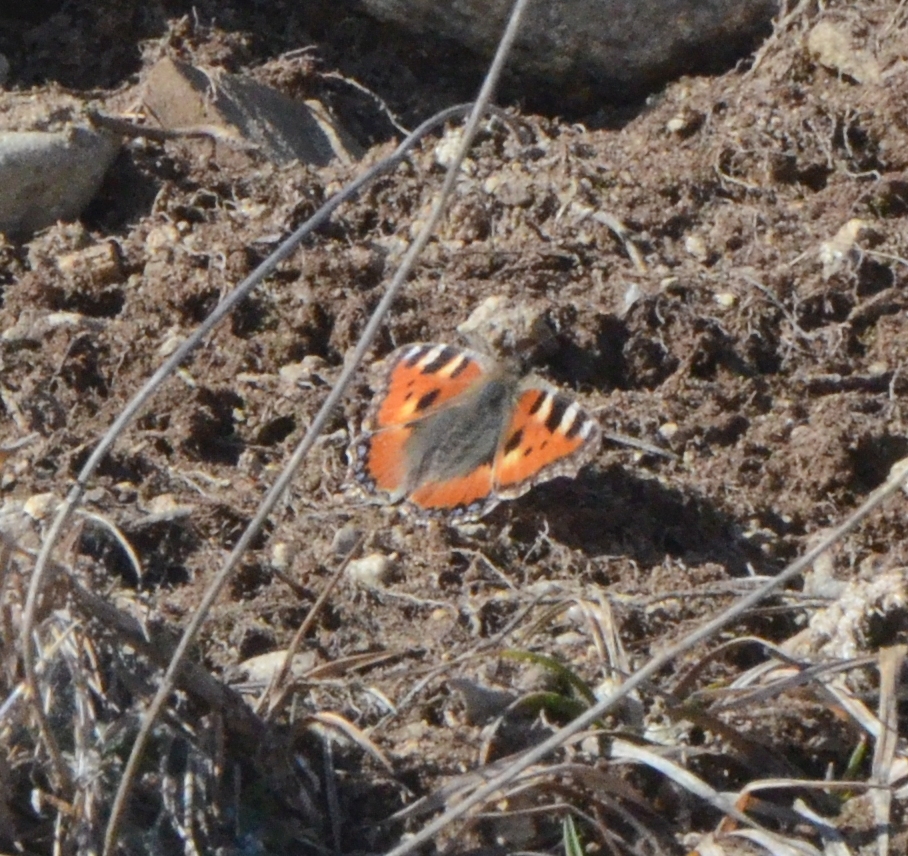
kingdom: Animalia
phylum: Arthropoda
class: Insecta
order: Lepidoptera
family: Nymphalidae
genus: Aglais
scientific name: Aglais urticae
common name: Small tortoiseshell
